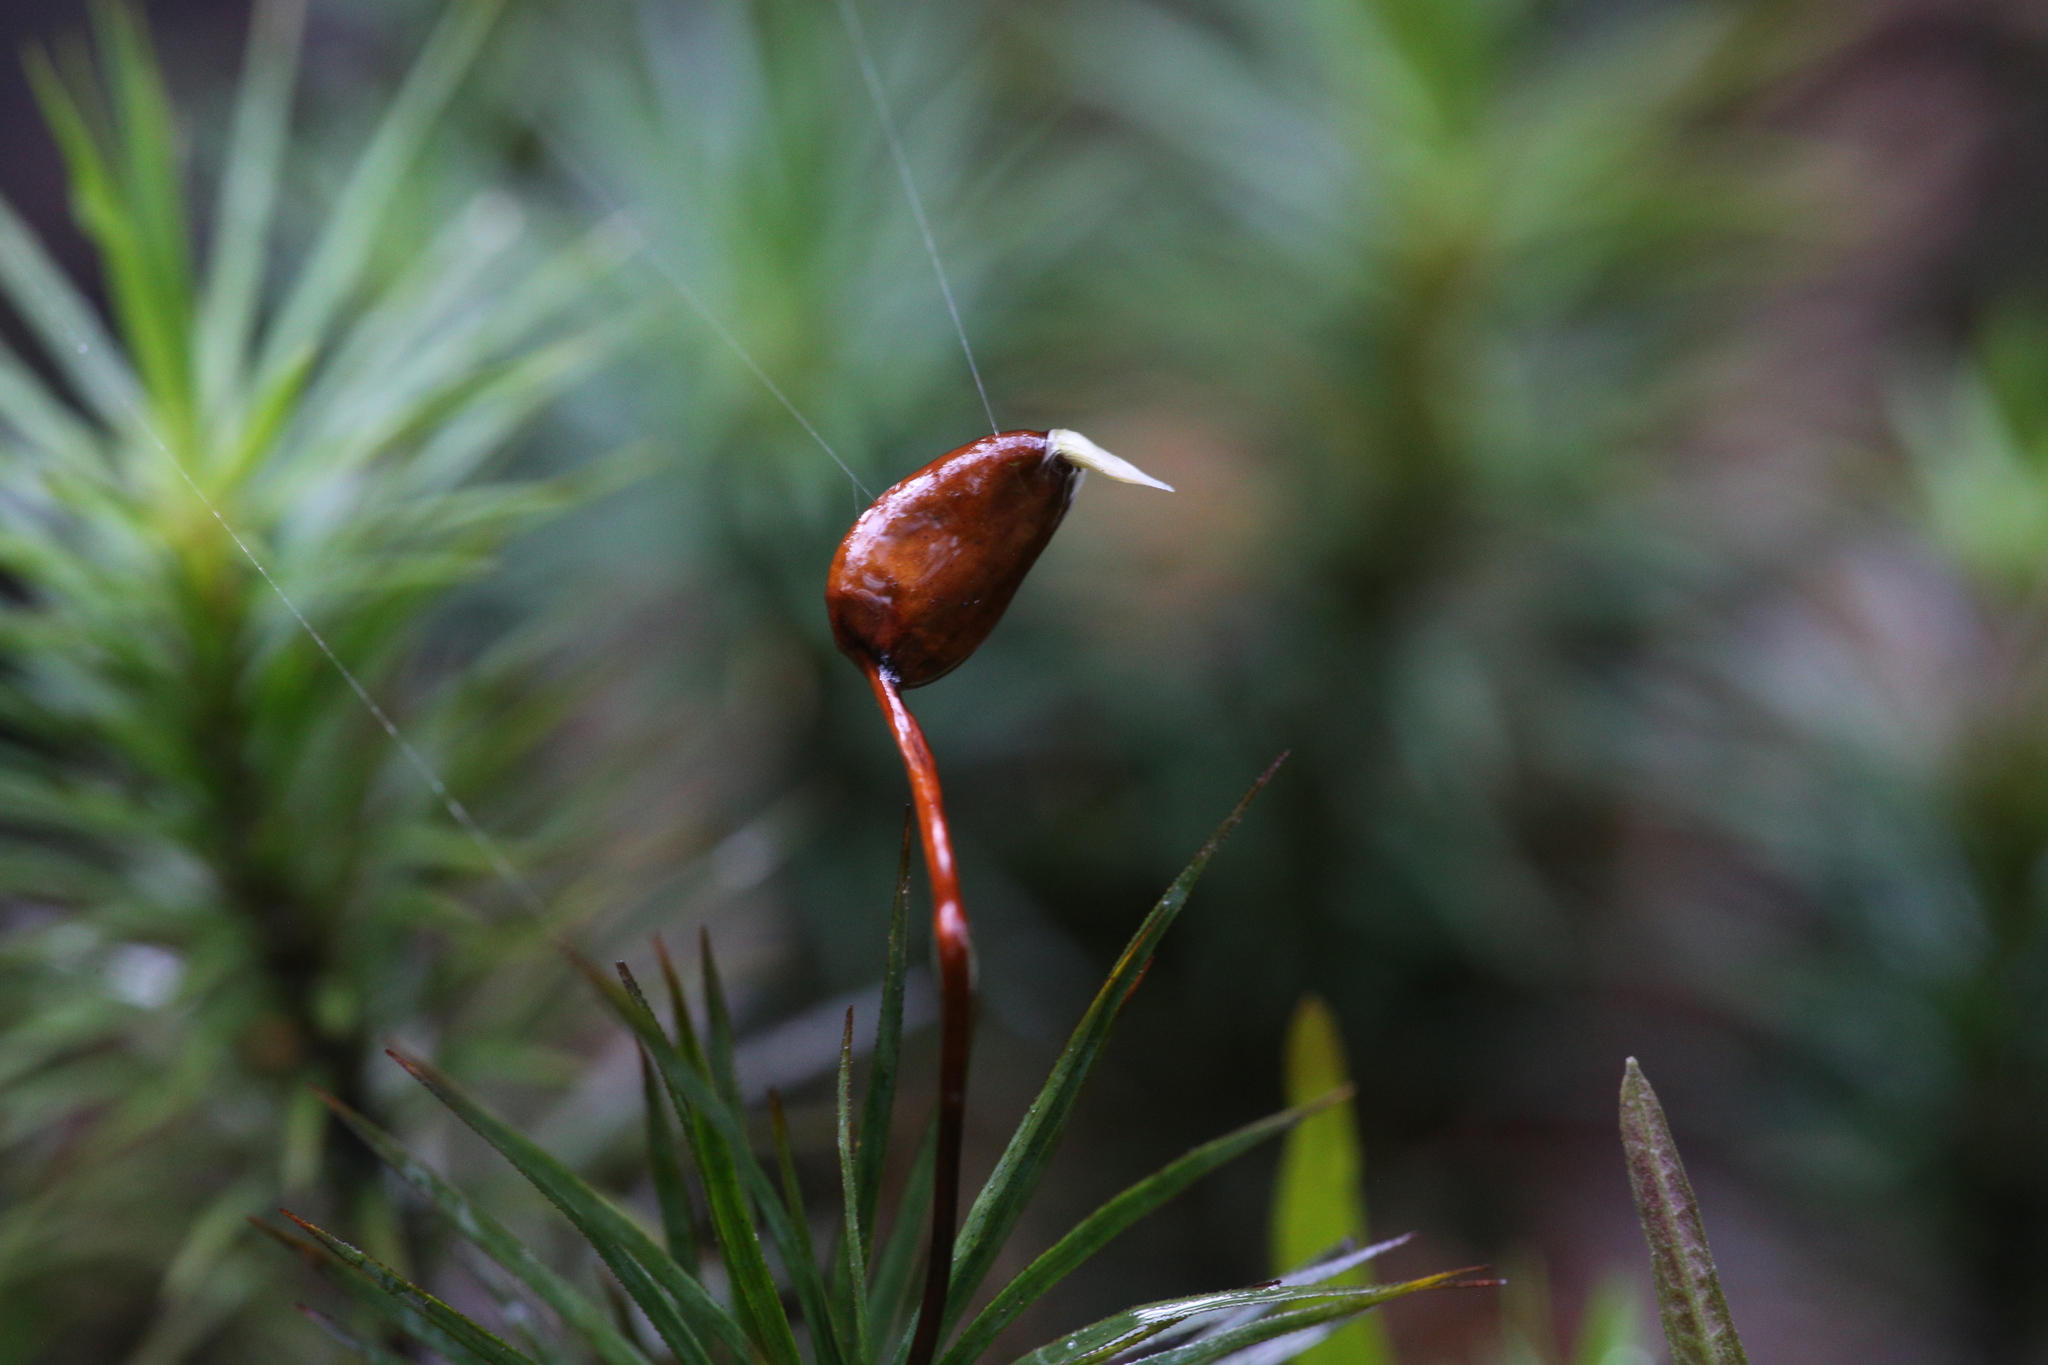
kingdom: Plantae
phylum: Bryophyta
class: Polytrichopsida
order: Polytrichales
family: Polytrichaceae
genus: Dawsonia
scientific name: Dawsonia superba
